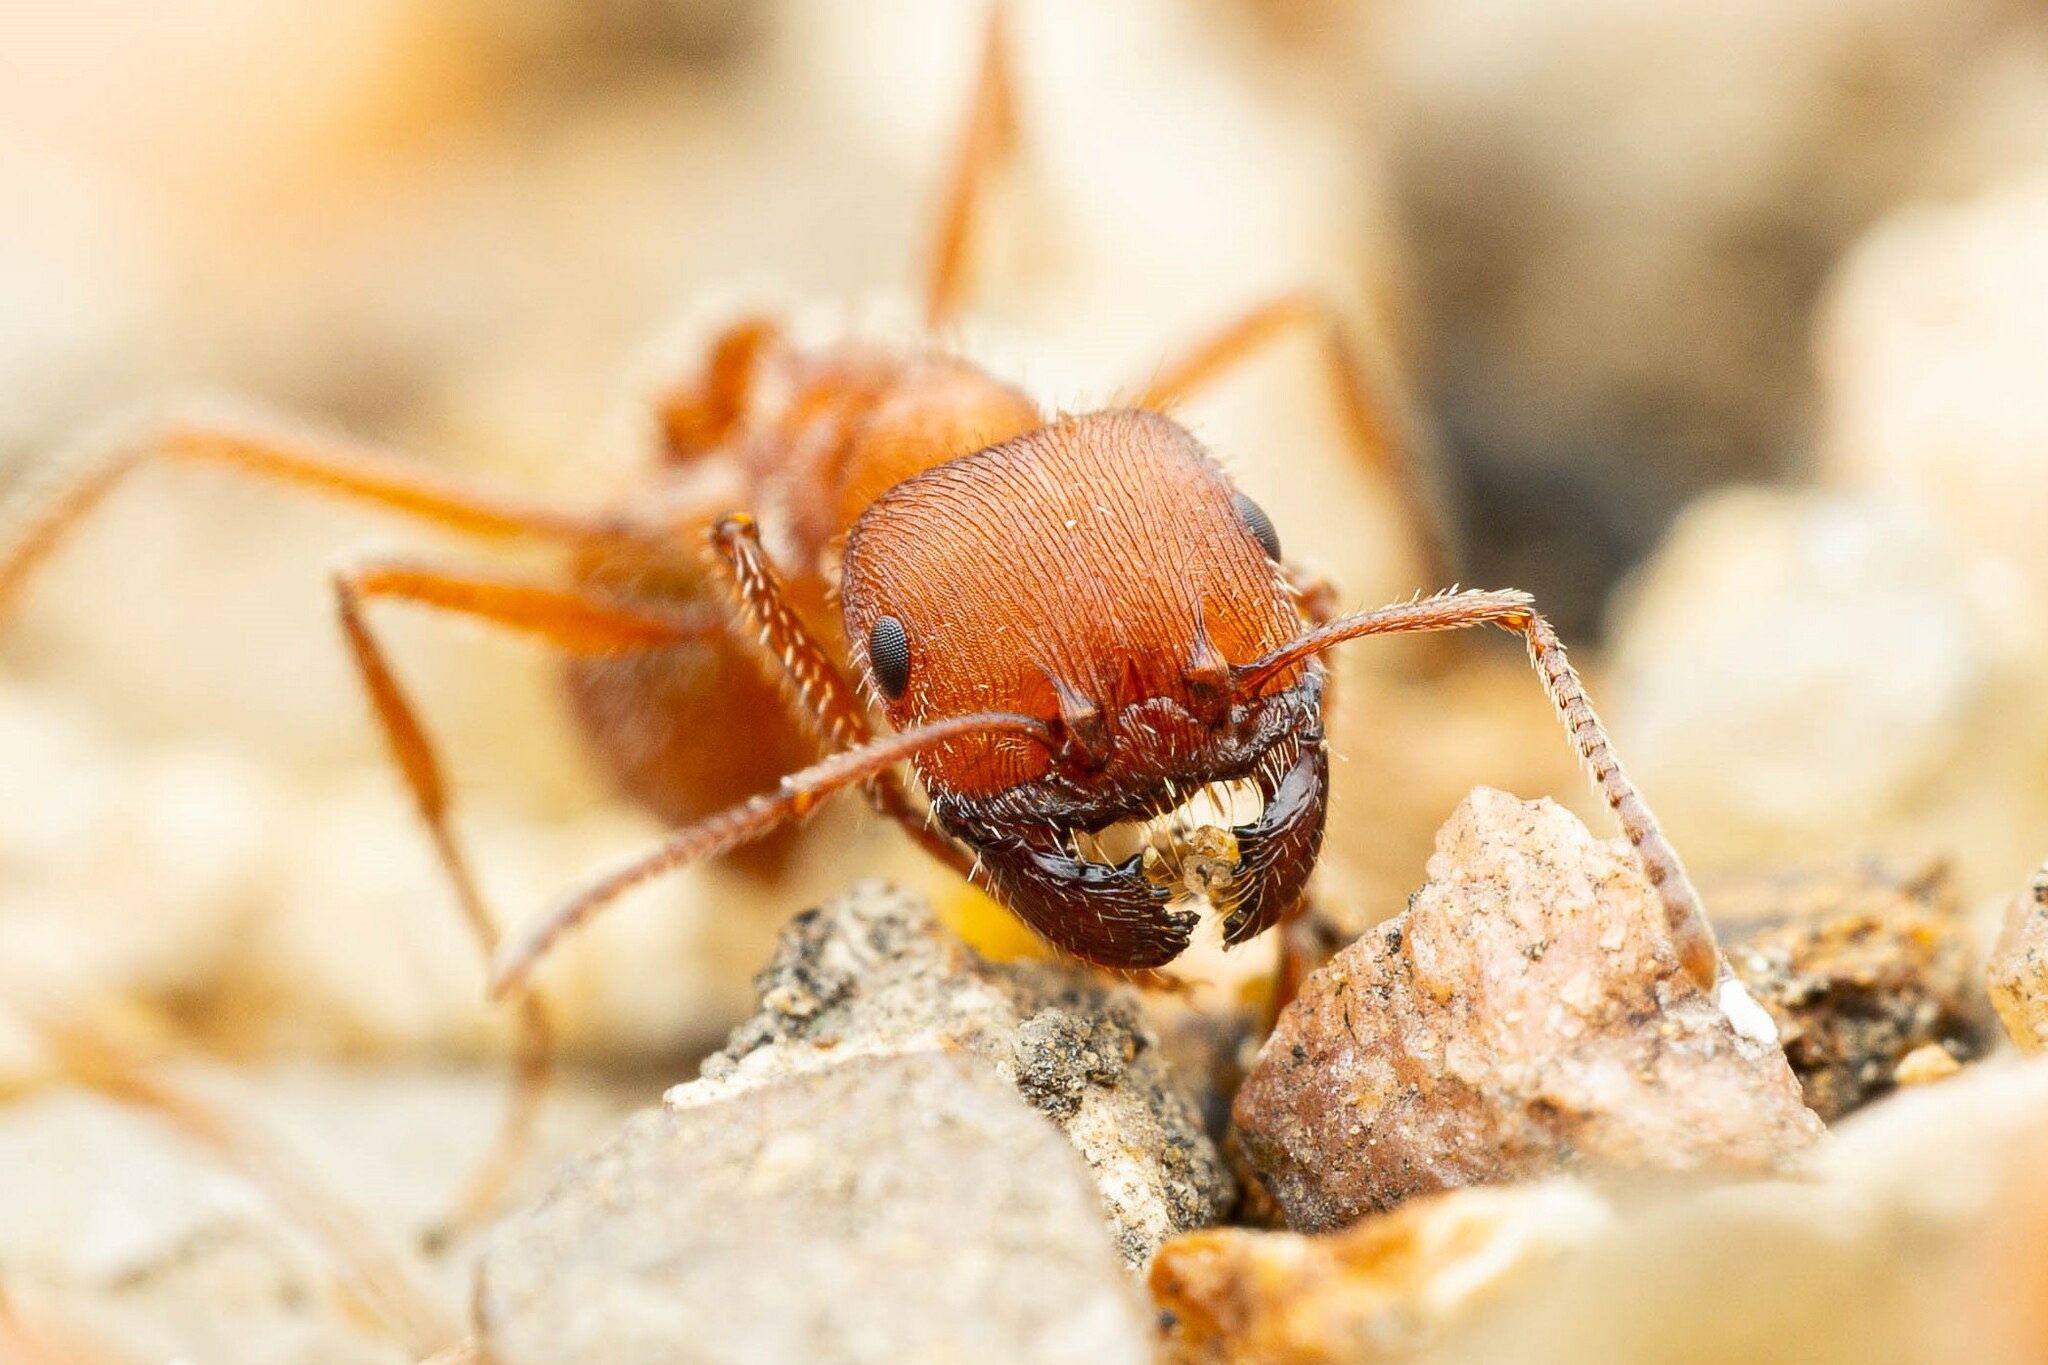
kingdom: Animalia
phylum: Arthropoda
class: Insecta
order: Hymenoptera
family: Formicidae
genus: Pogonomyrmex
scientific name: Pogonomyrmex occidentalis
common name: Western harvester ant
